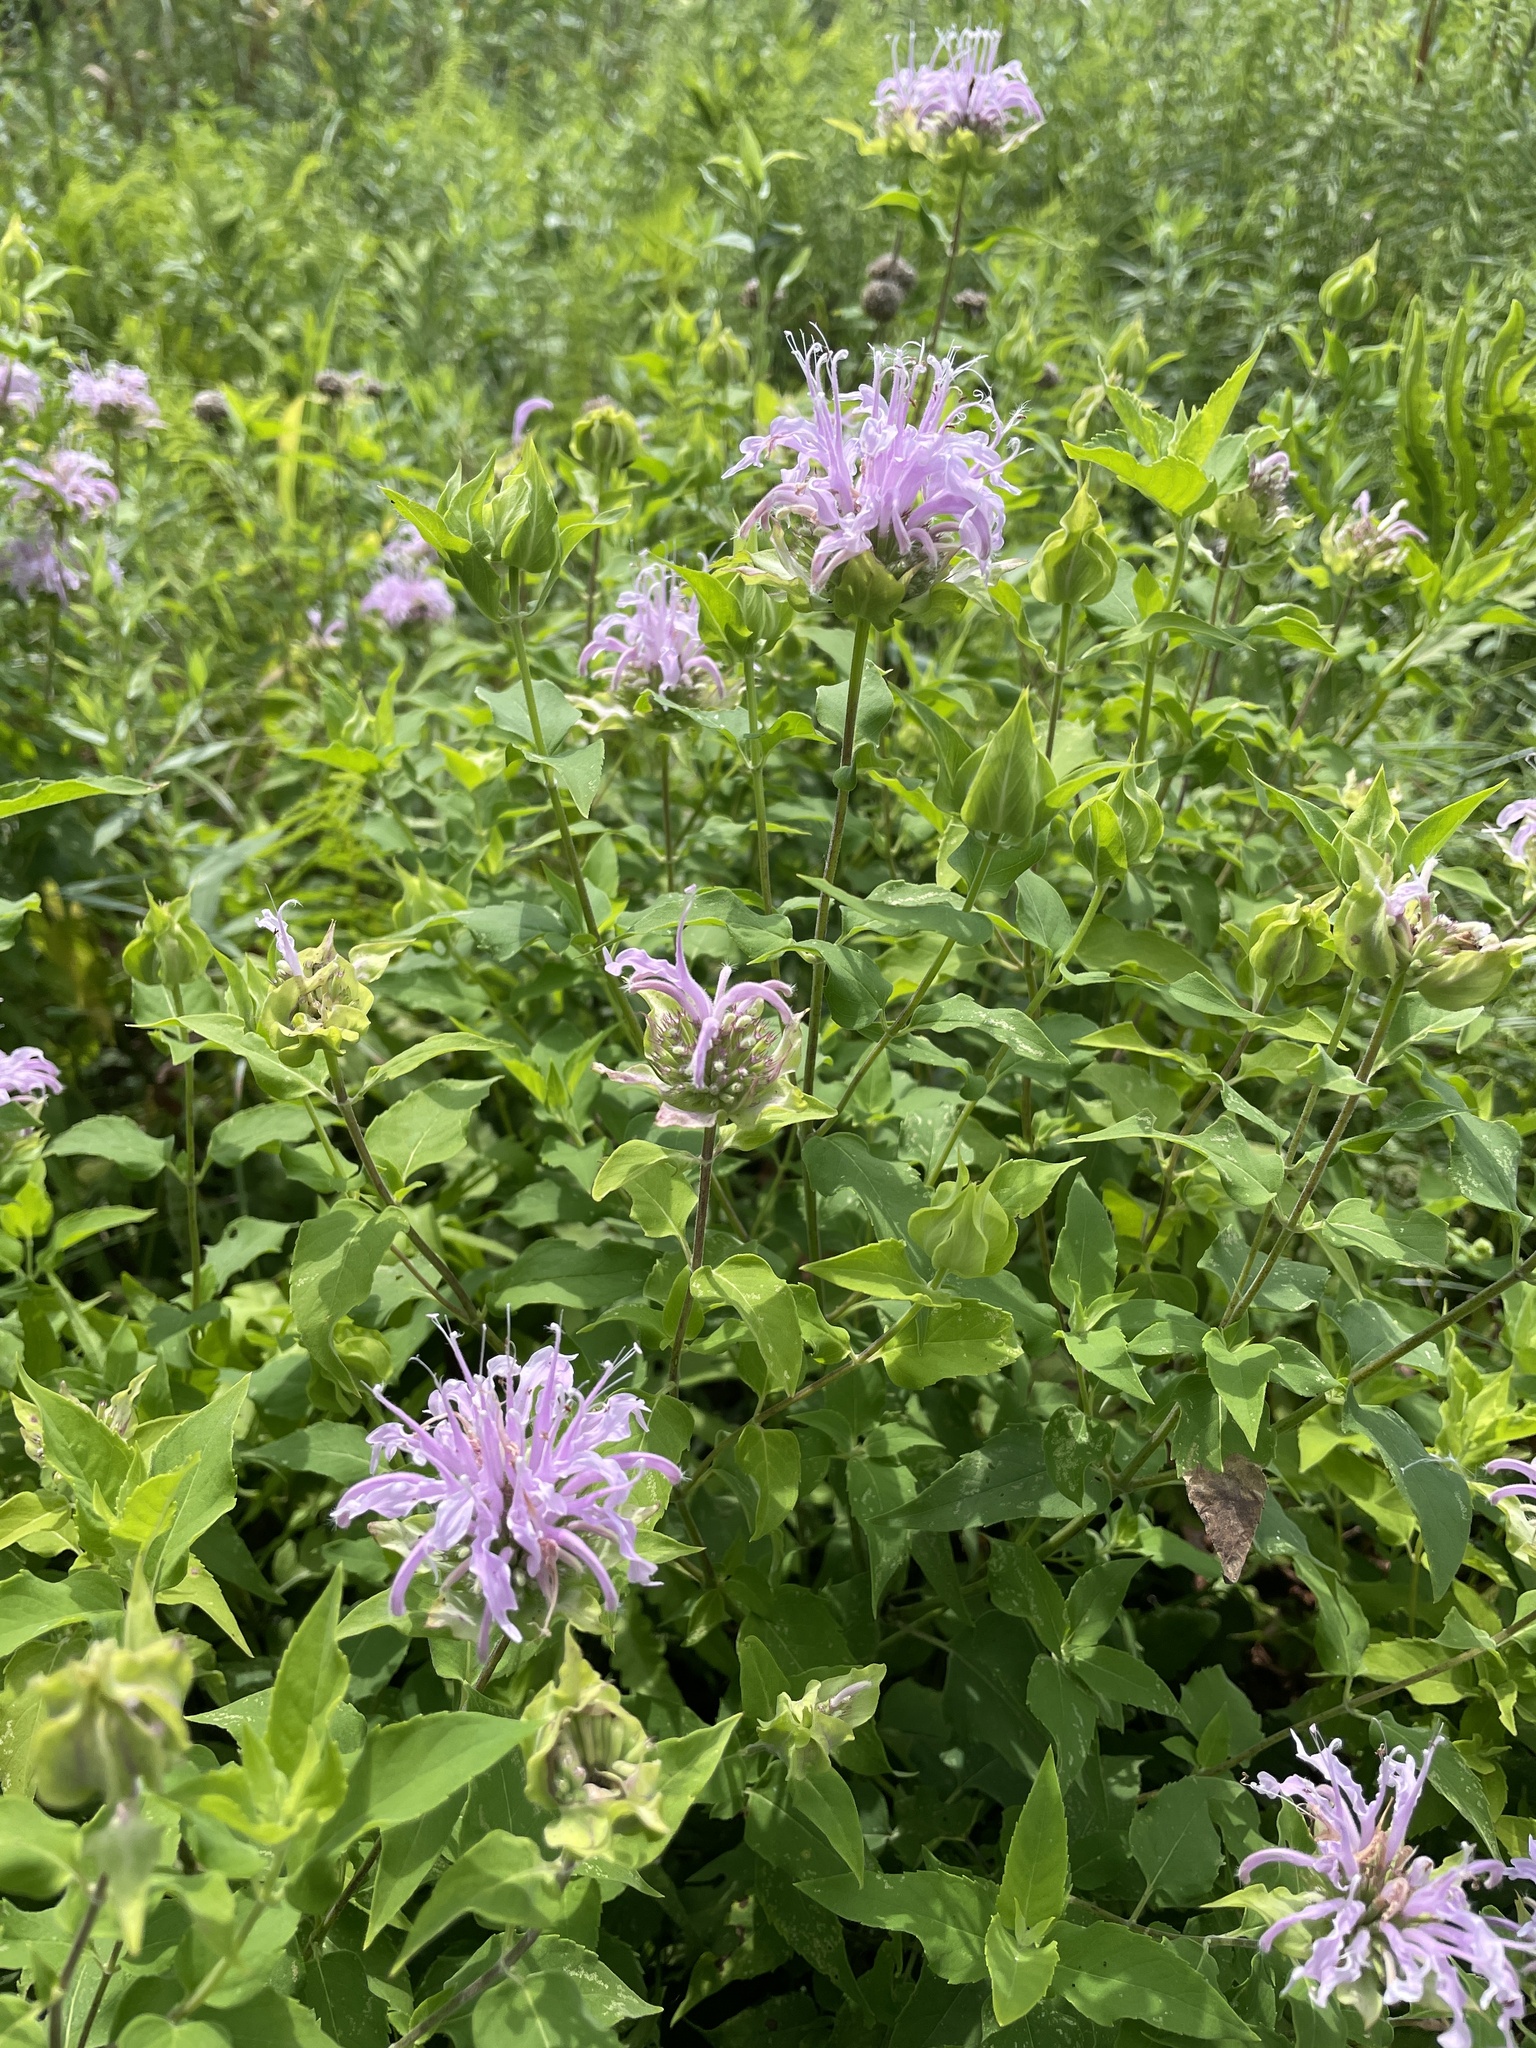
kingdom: Plantae
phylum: Tracheophyta
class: Magnoliopsida
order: Lamiales
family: Lamiaceae
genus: Monarda
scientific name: Monarda fistulosa
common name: Purple beebalm
